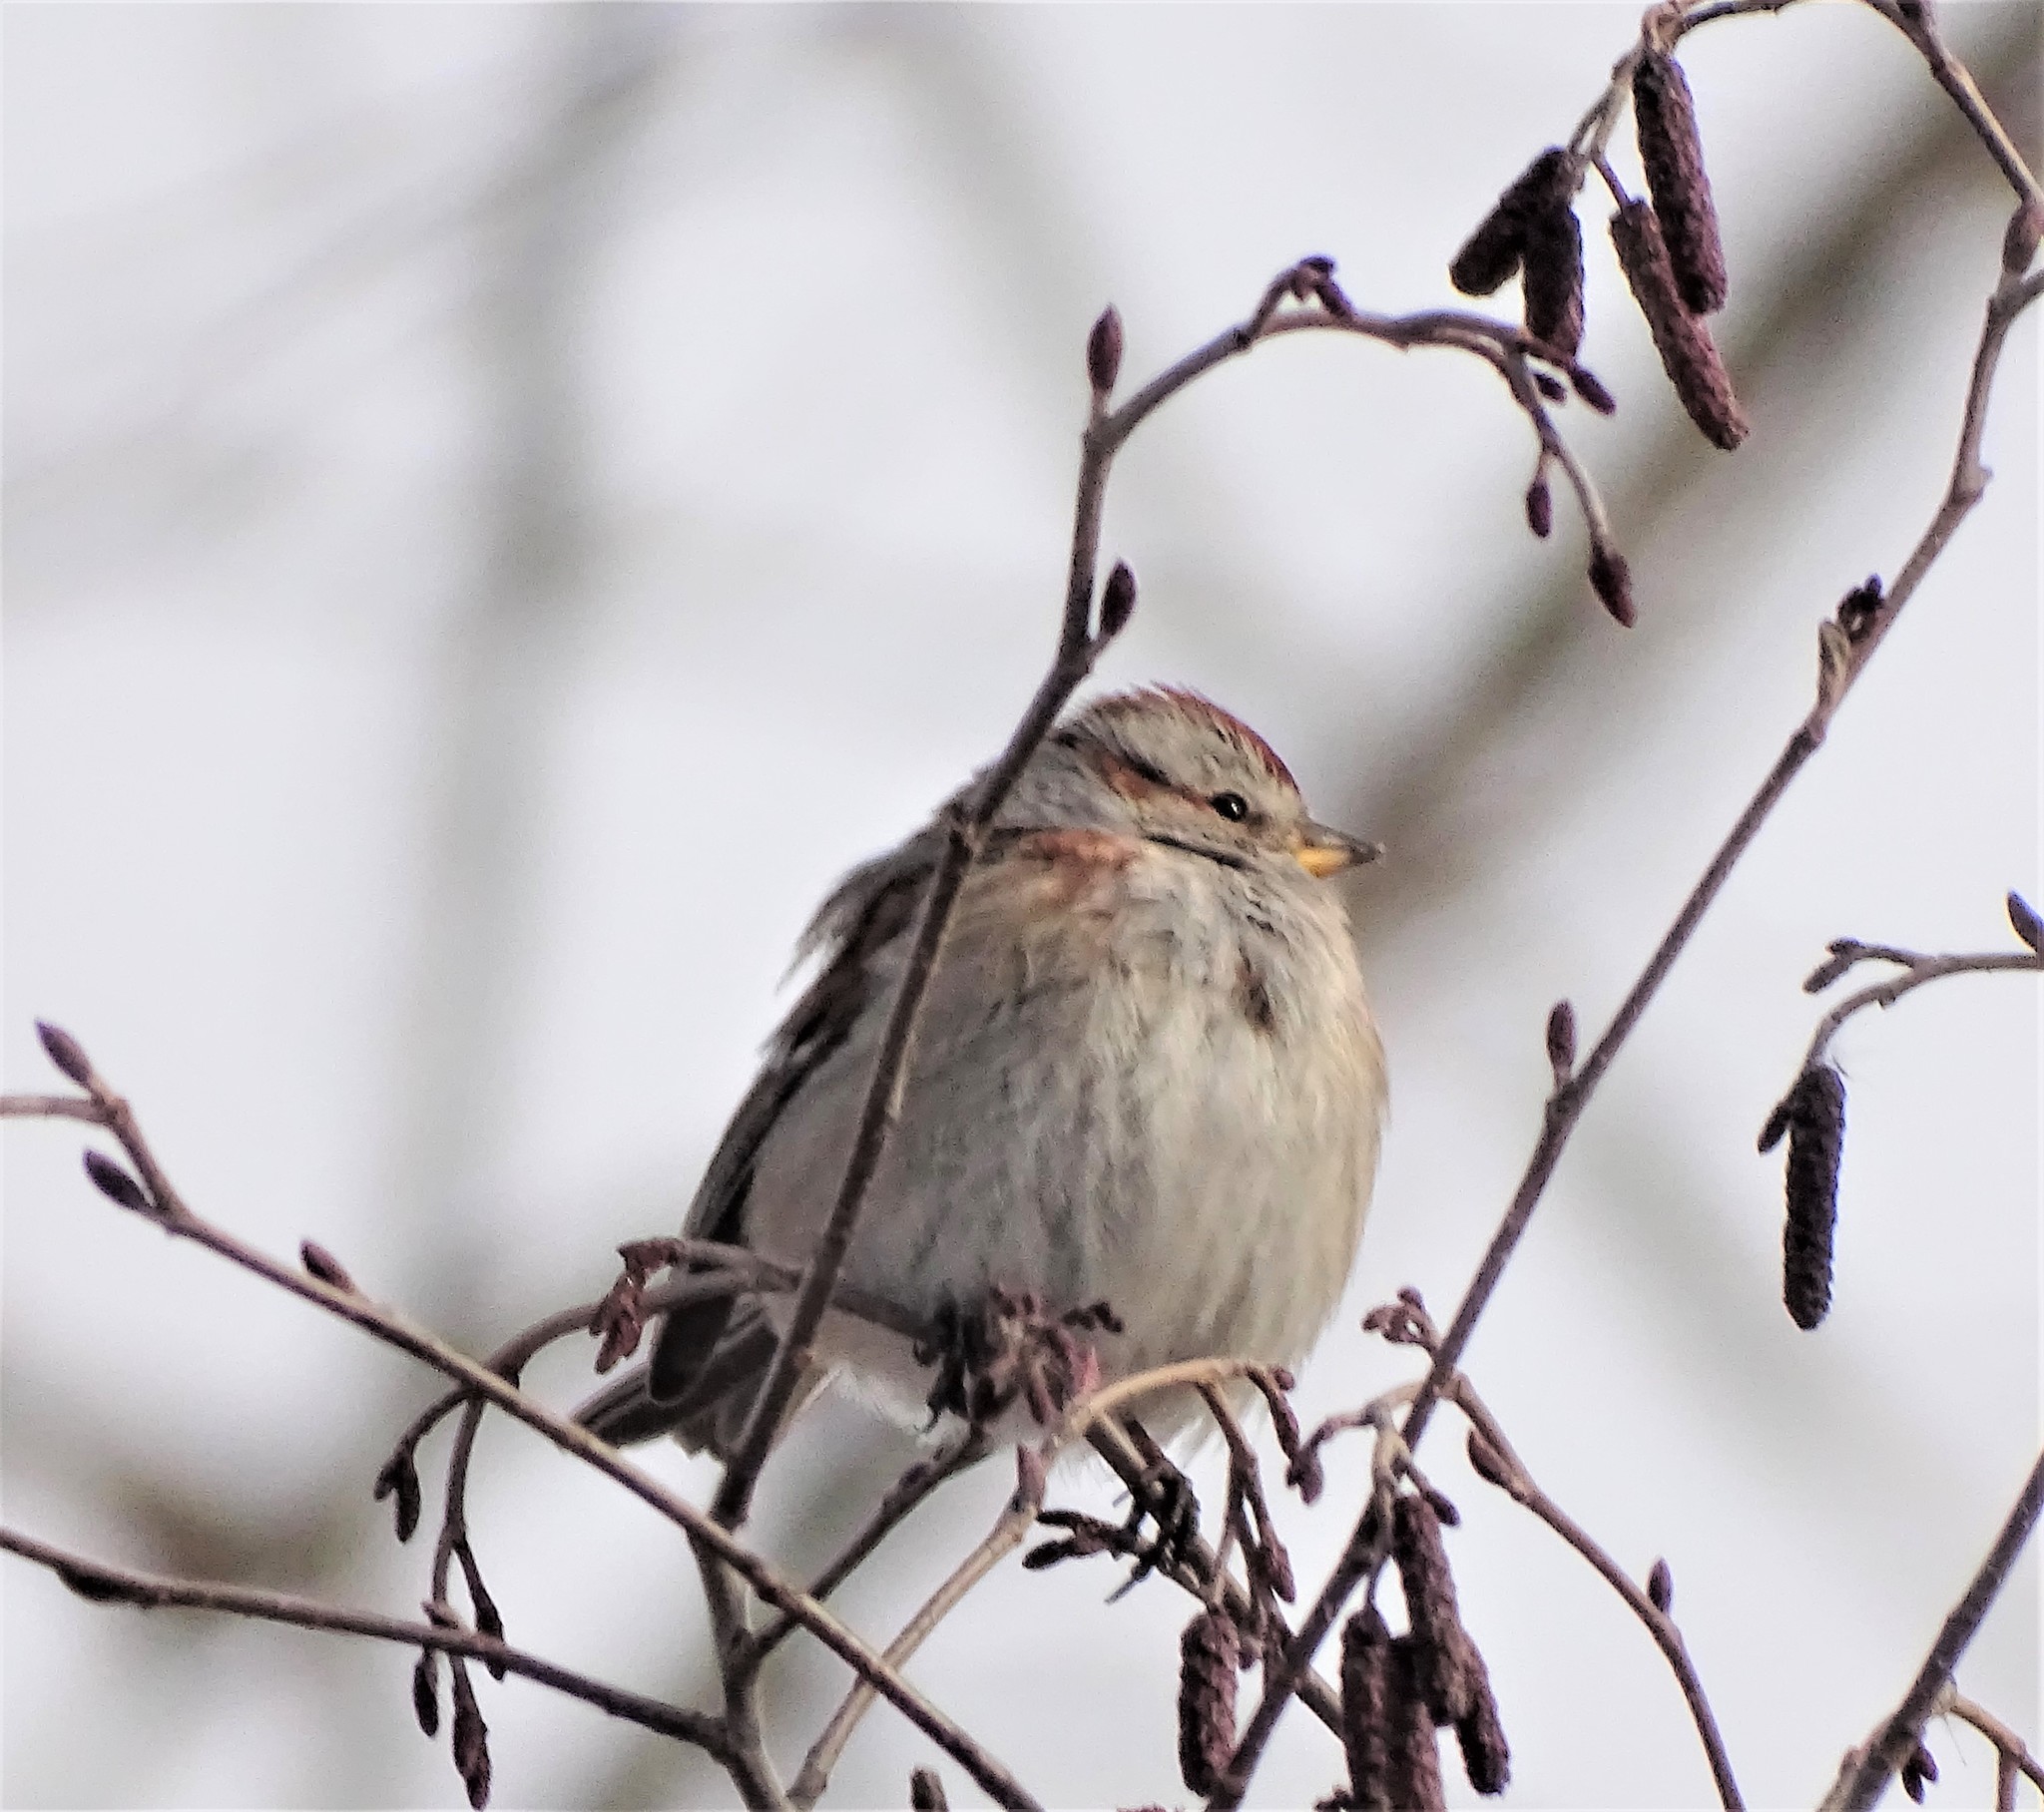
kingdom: Animalia
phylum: Chordata
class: Aves
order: Passeriformes
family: Passerellidae
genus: Spizelloides
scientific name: Spizelloides arborea
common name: American tree sparrow
